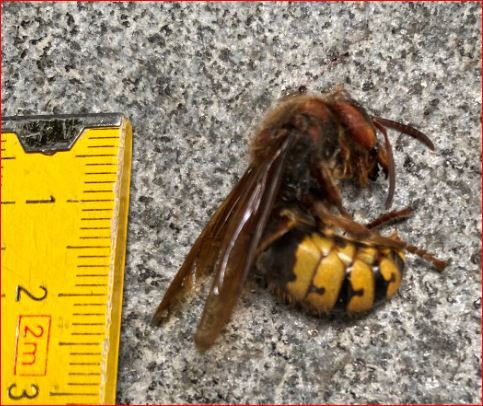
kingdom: Animalia
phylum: Arthropoda
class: Insecta
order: Hymenoptera
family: Vespidae
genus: Vespa
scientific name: Vespa crabro
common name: Hornet
